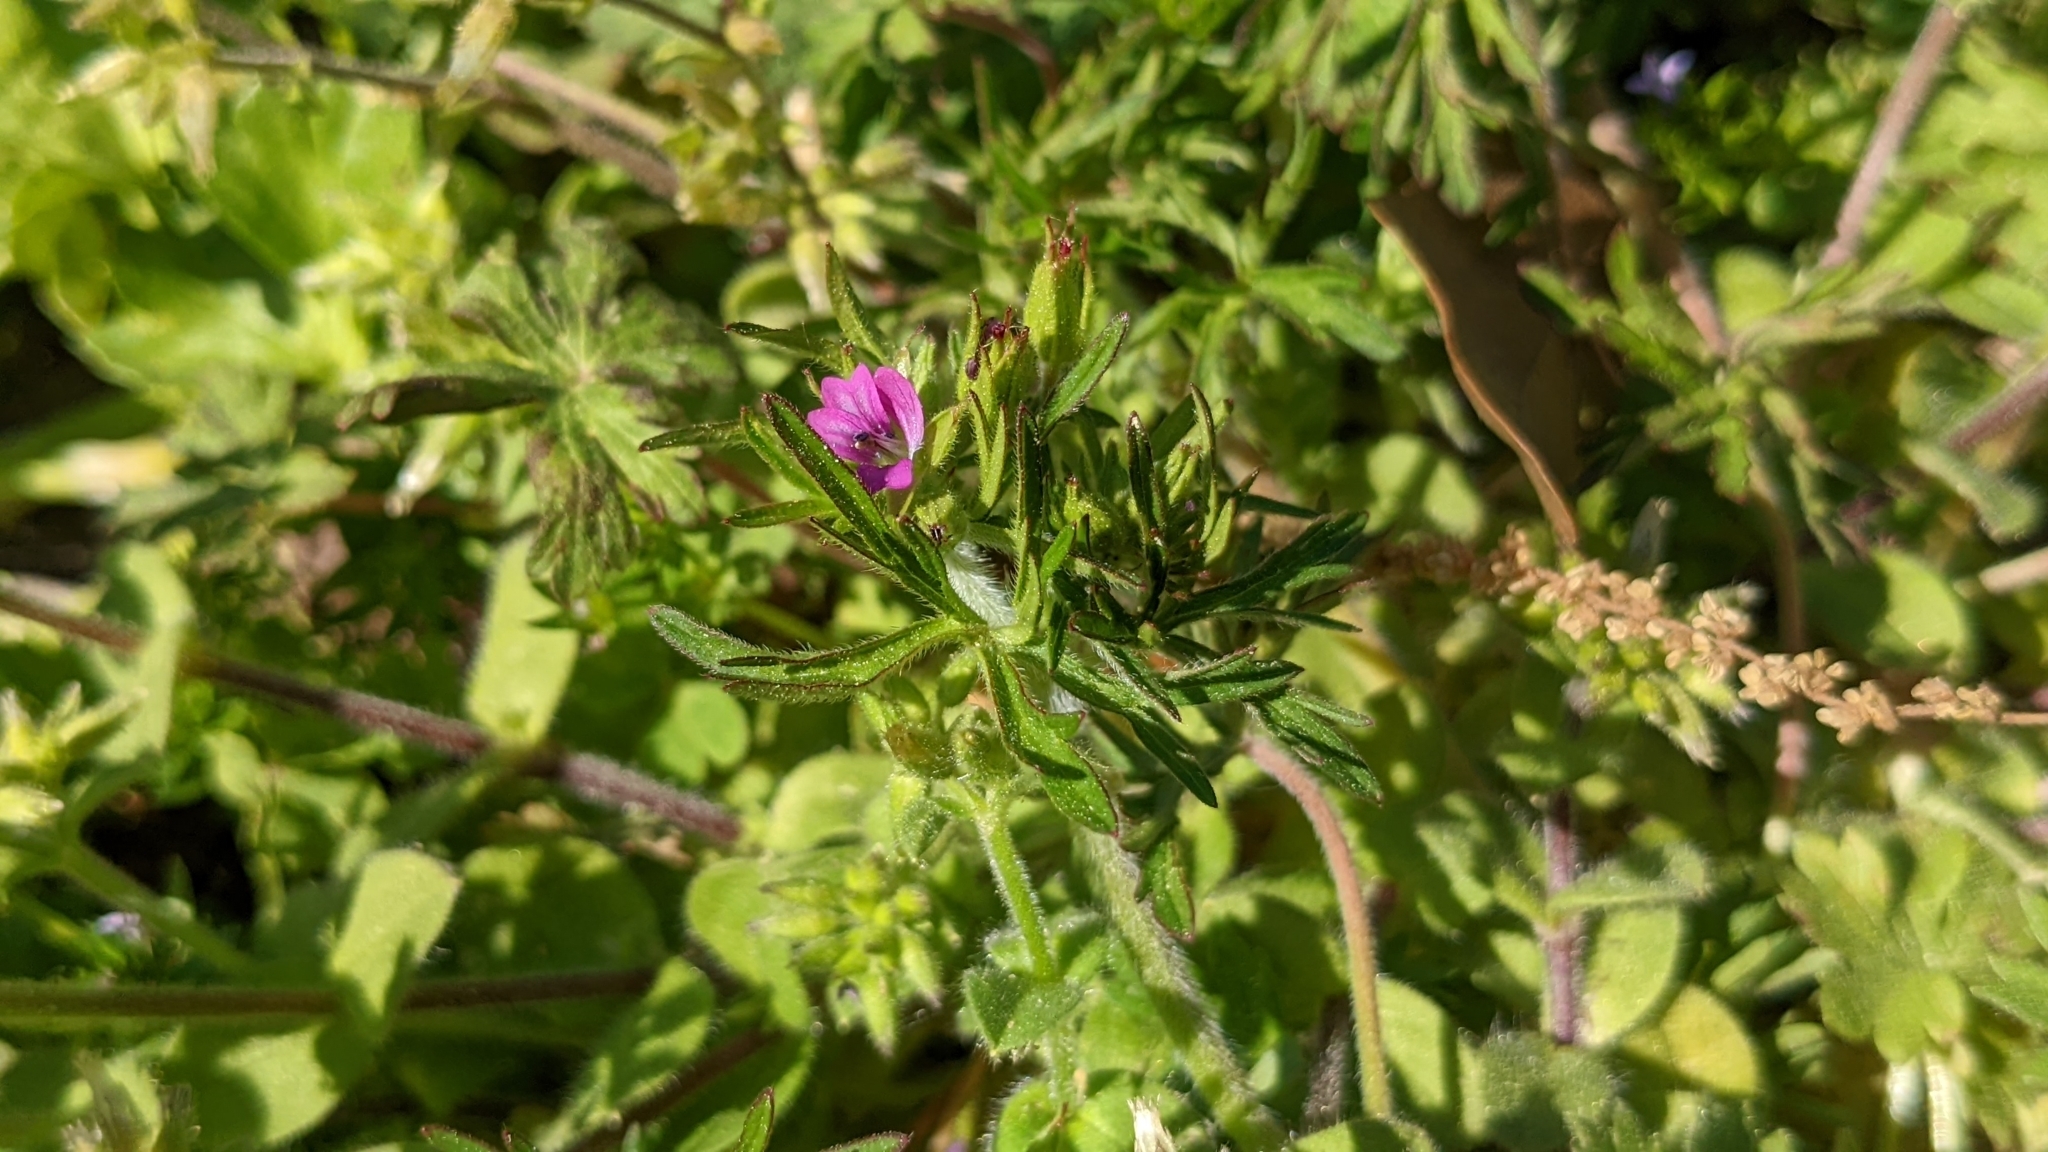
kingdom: Plantae
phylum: Tracheophyta
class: Magnoliopsida
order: Geraniales
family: Geraniaceae
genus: Geranium
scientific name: Geranium dissectum
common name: Cut-leaved crane's-bill
